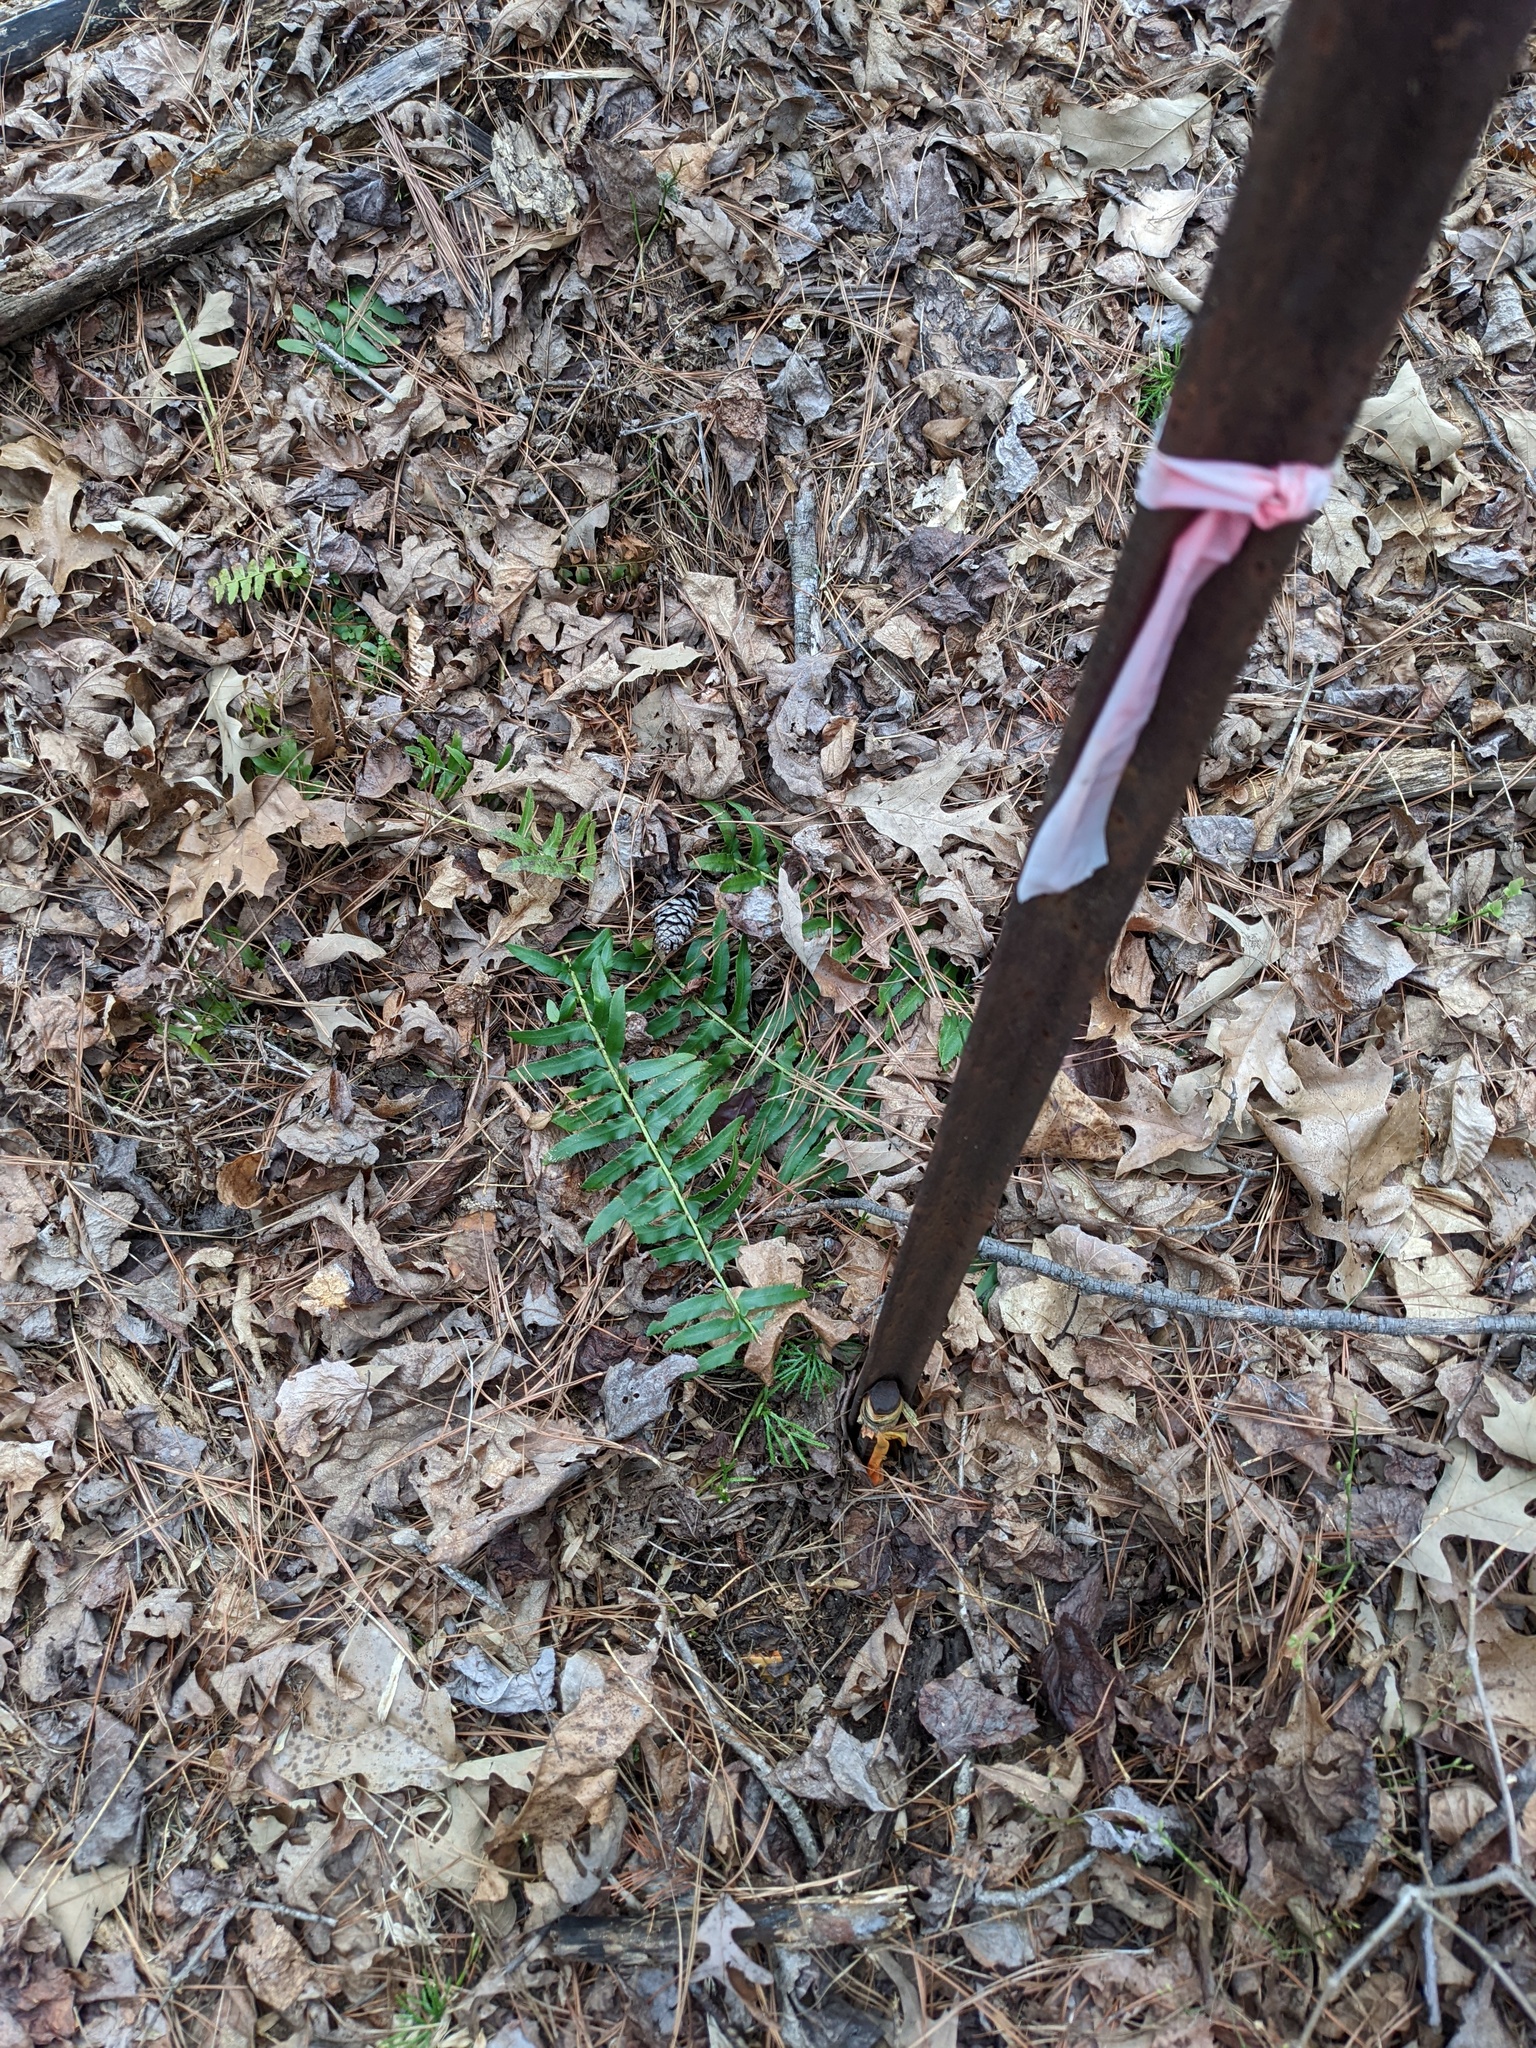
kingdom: Plantae
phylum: Tracheophyta
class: Polypodiopsida
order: Polypodiales
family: Dryopteridaceae
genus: Polystichum
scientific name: Polystichum acrostichoides
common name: Christmas fern
